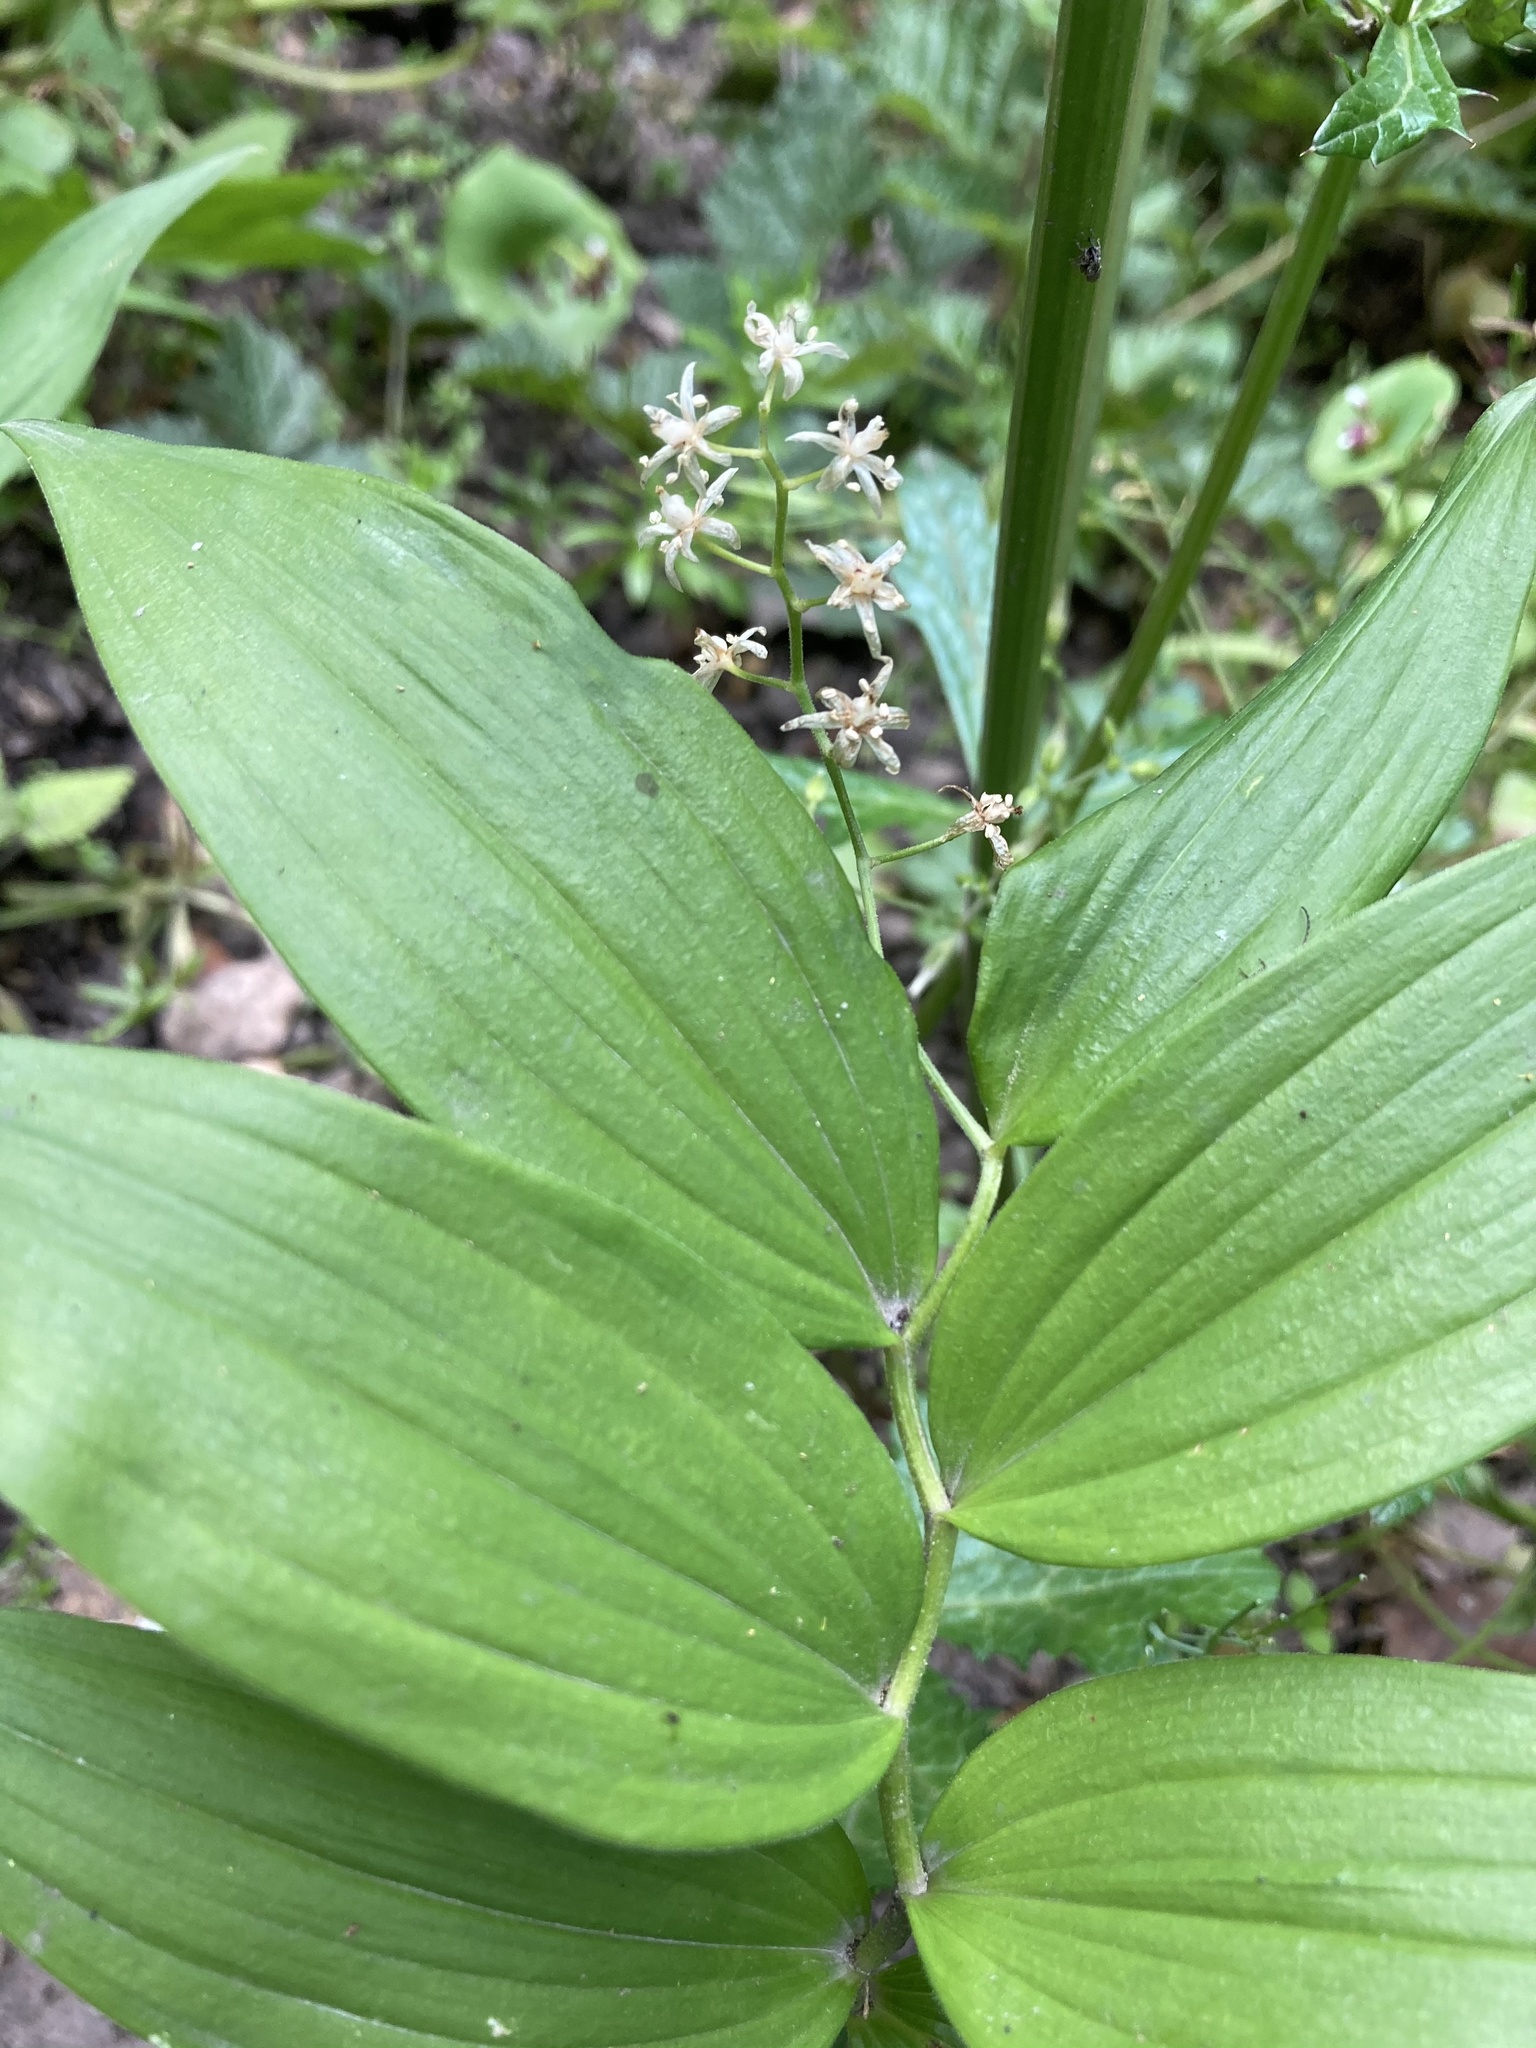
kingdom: Plantae
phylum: Tracheophyta
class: Liliopsida
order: Asparagales
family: Asparagaceae
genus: Maianthemum
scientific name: Maianthemum stellatum
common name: Little false solomon's seal
